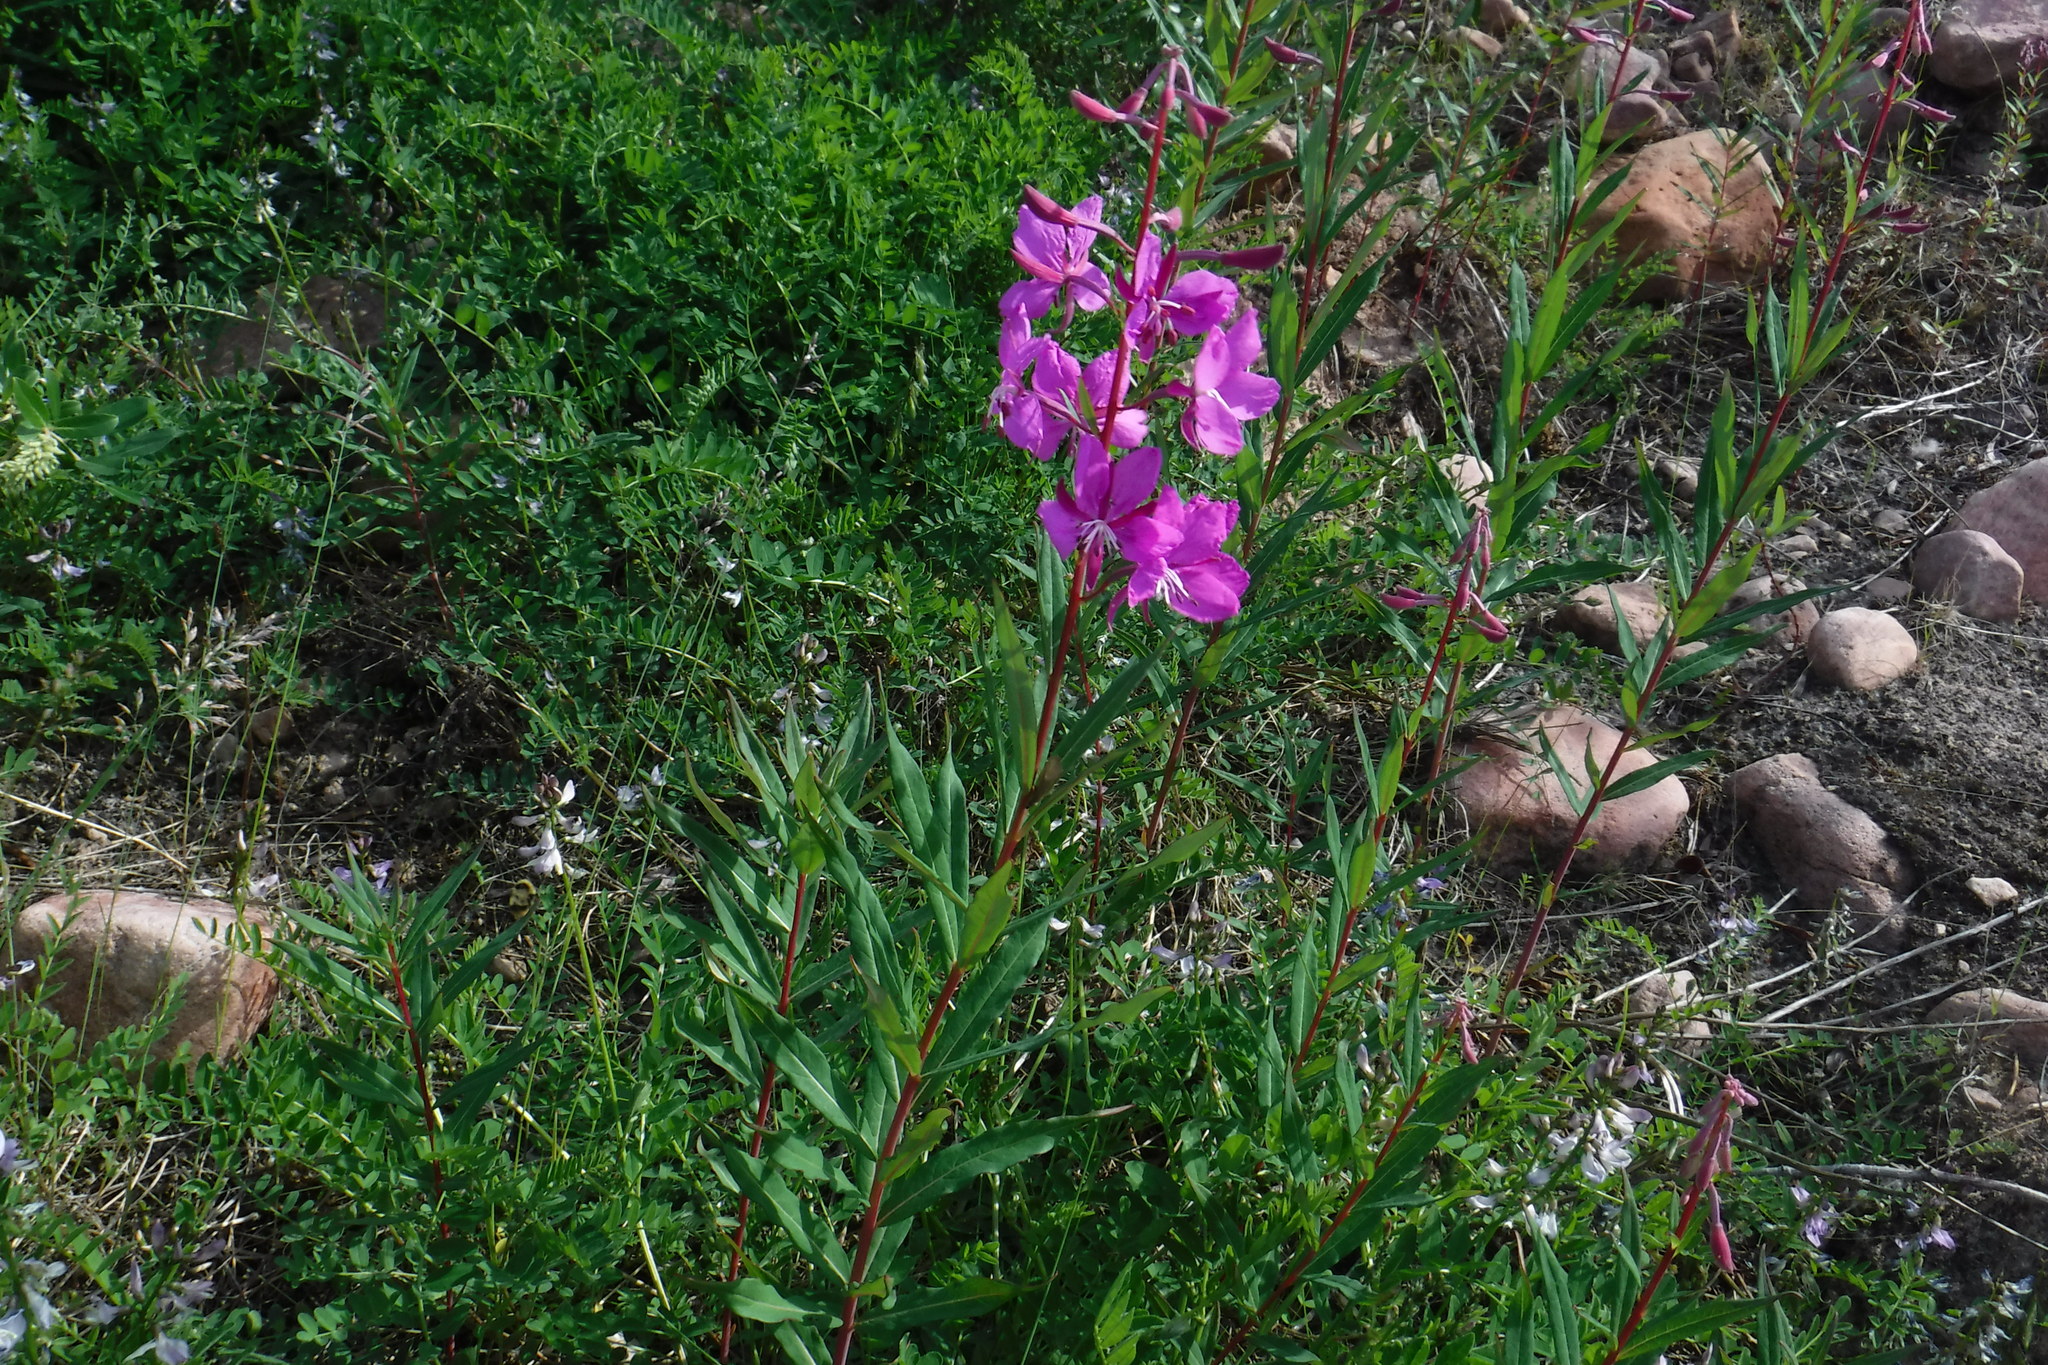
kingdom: Plantae
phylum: Tracheophyta
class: Magnoliopsida
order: Myrtales
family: Onagraceae
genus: Chamaenerion
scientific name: Chamaenerion angustifolium
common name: Fireweed
